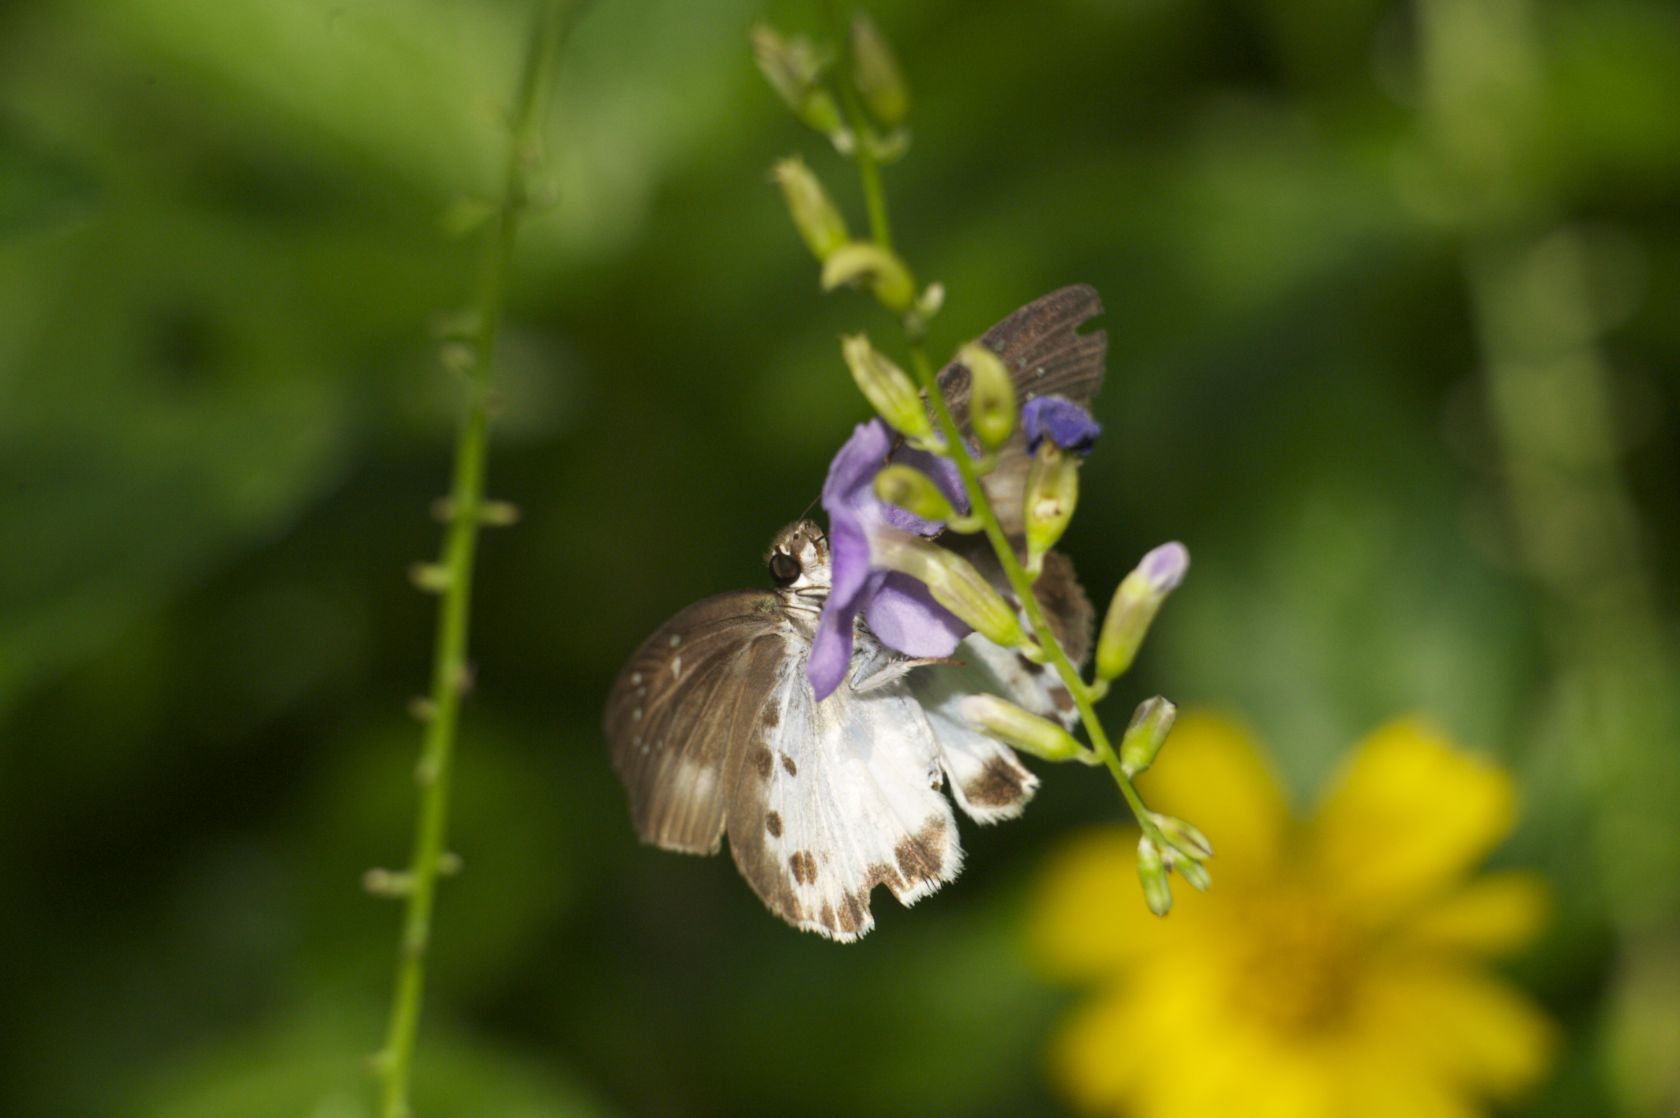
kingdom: Animalia
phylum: Arthropoda
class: Insecta
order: Lepidoptera
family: Hesperiidae
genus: Tagiades
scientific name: Tagiades menaka
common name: Dark-edged snow flat
